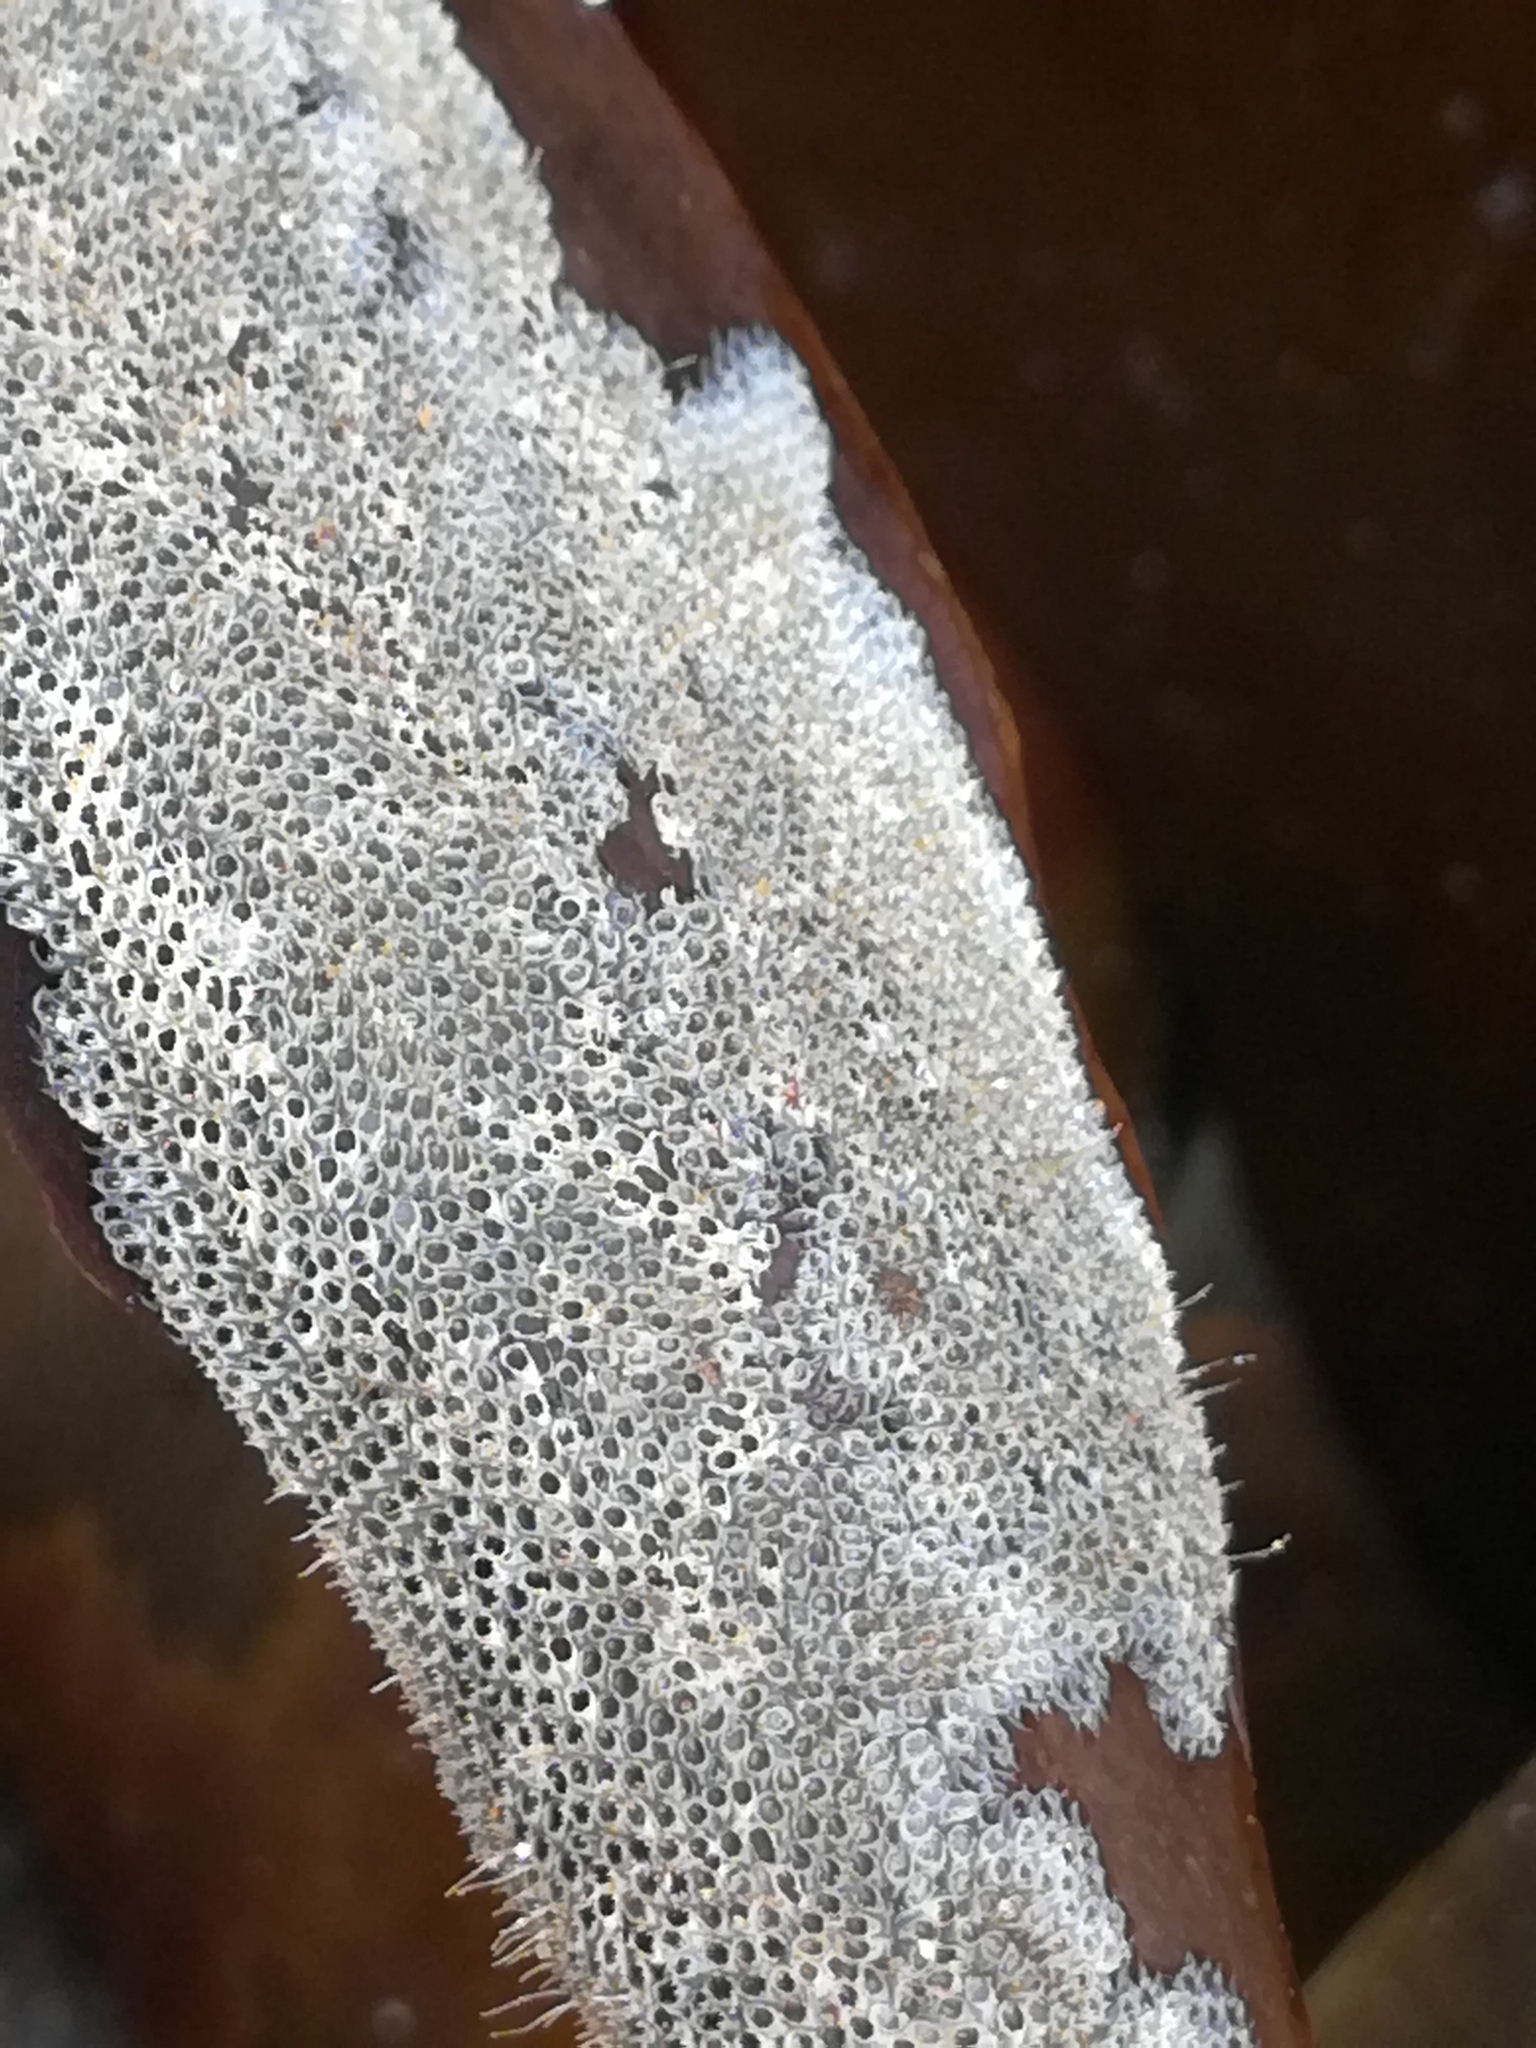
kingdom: Animalia
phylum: Bryozoa
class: Gymnolaemata
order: Cheilostomatida
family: Electridae
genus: Electra
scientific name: Electra pilosa
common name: Hairy sea-mat
